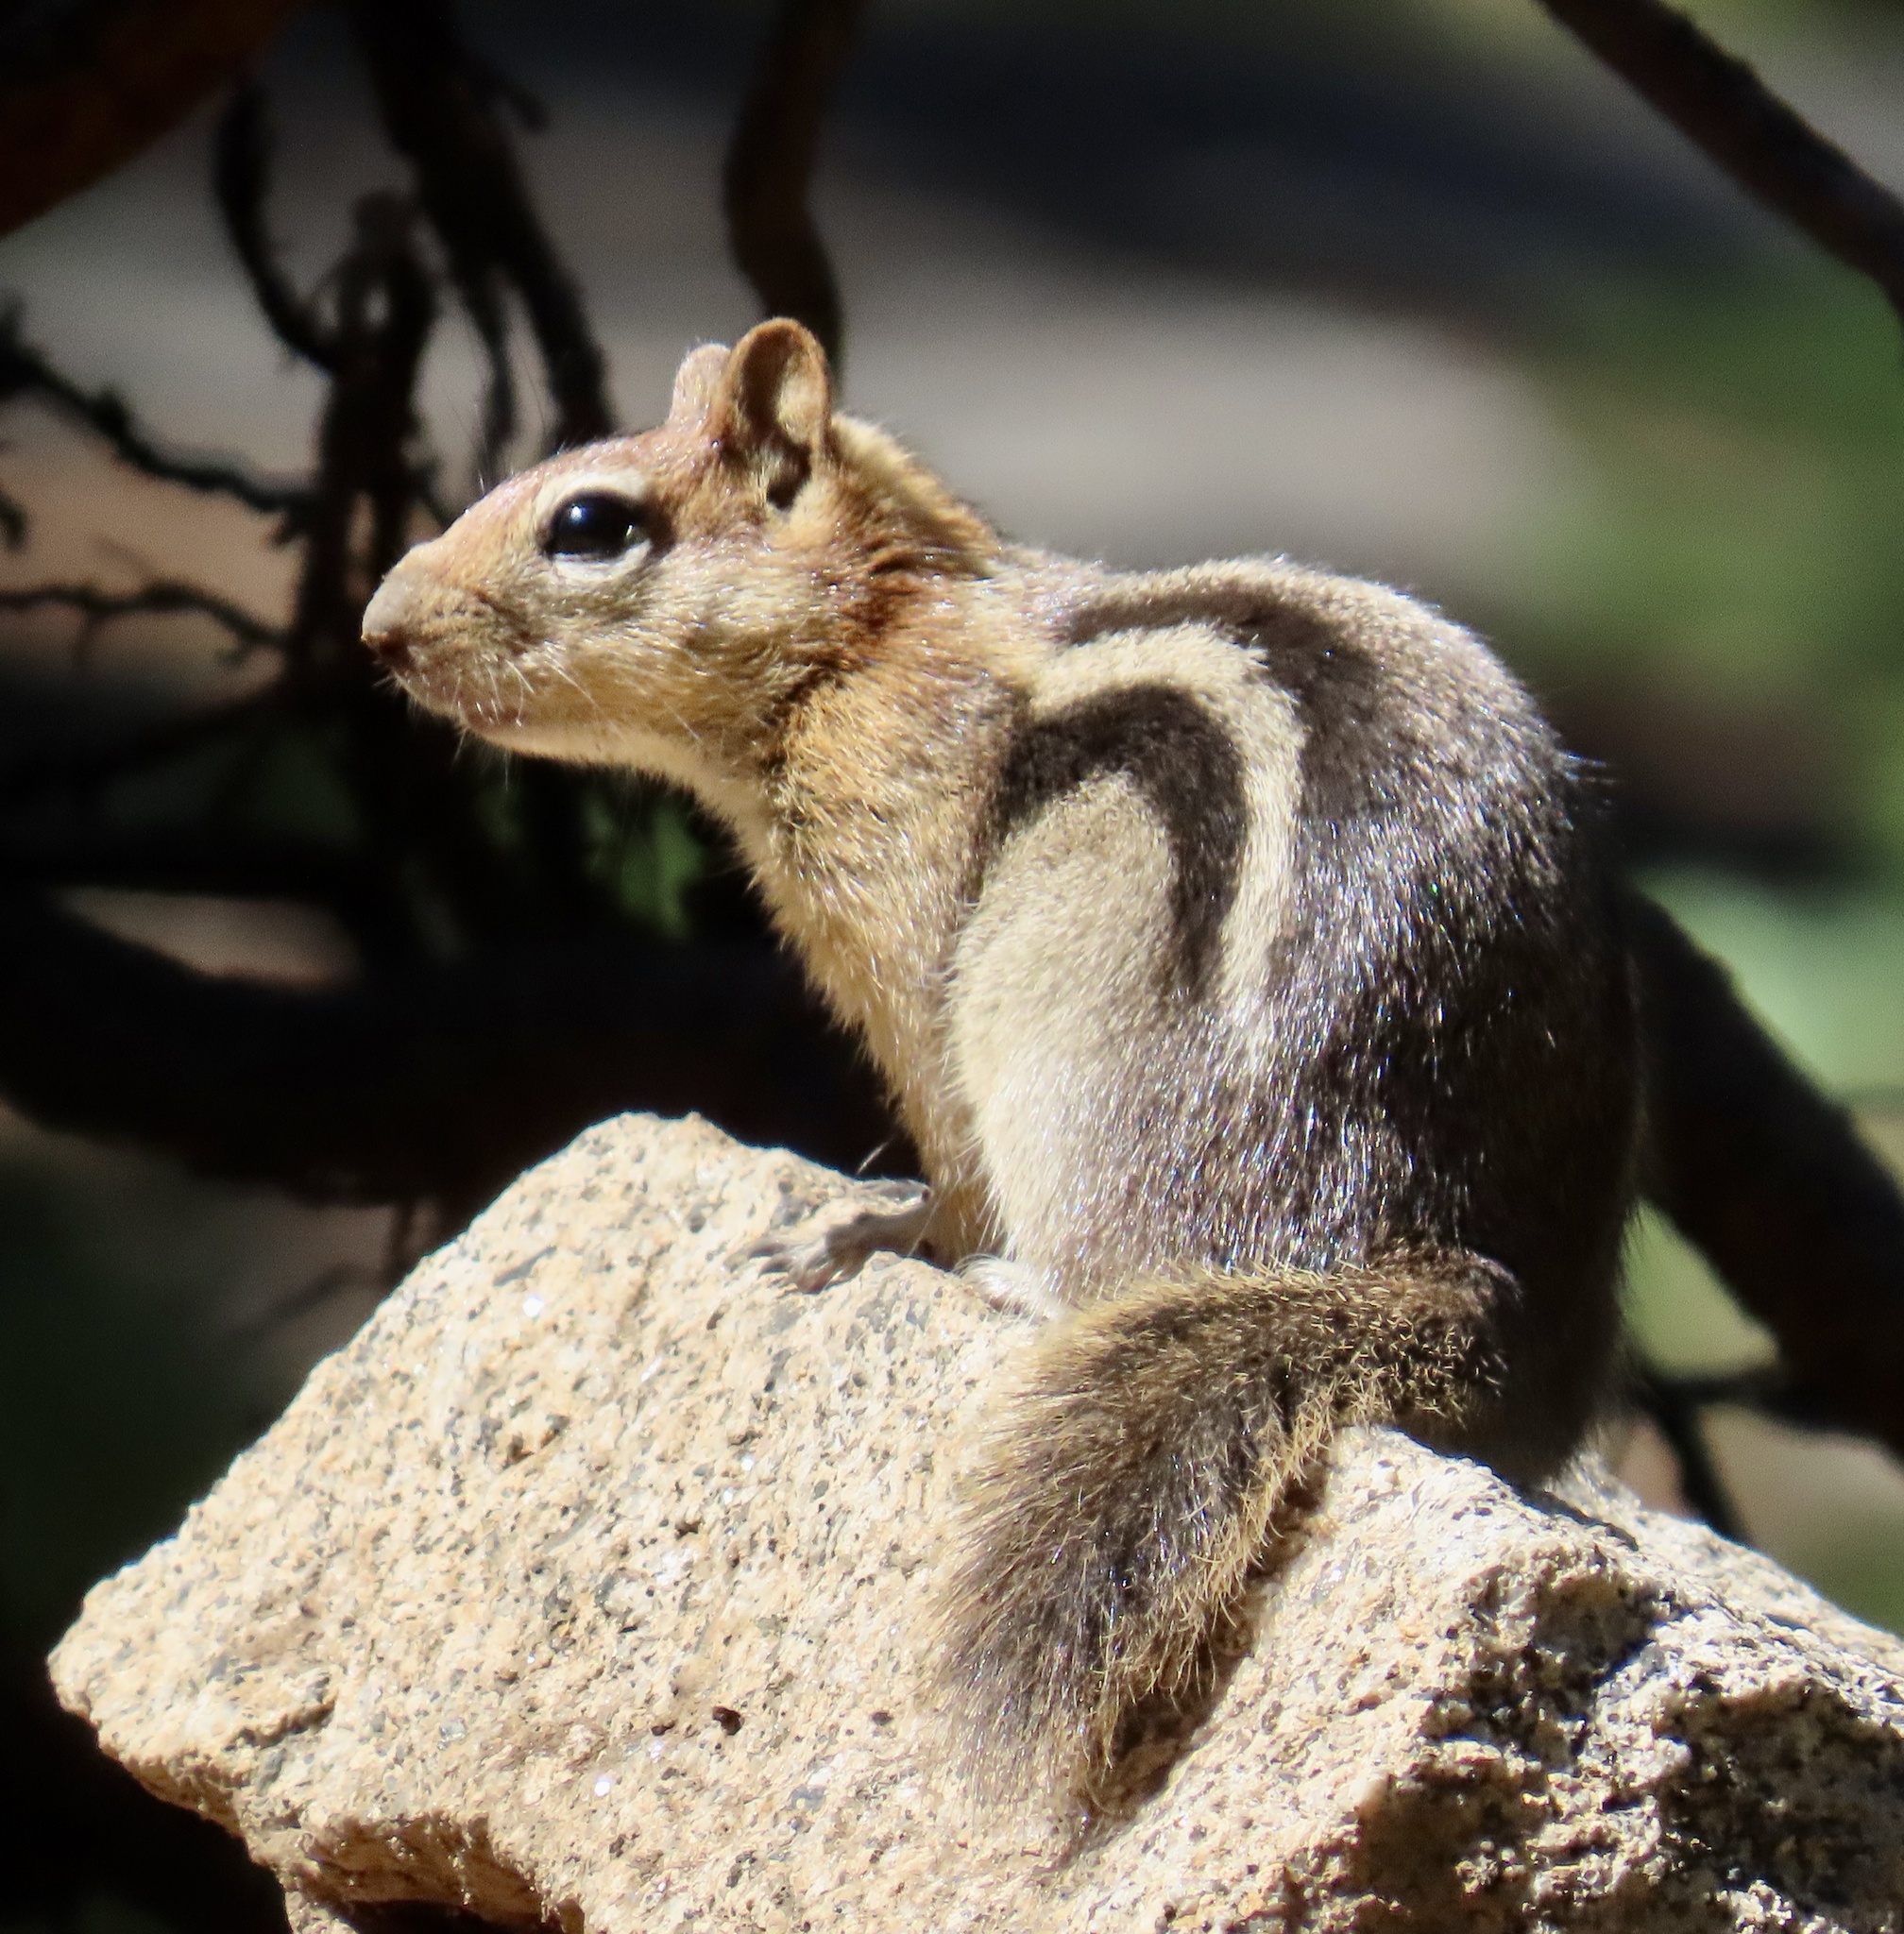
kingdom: Animalia
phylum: Chordata
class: Mammalia
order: Rodentia
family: Sciuridae
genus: Callospermophilus
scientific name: Callospermophilus lateralis
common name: Golden-mantled ground squirrel
